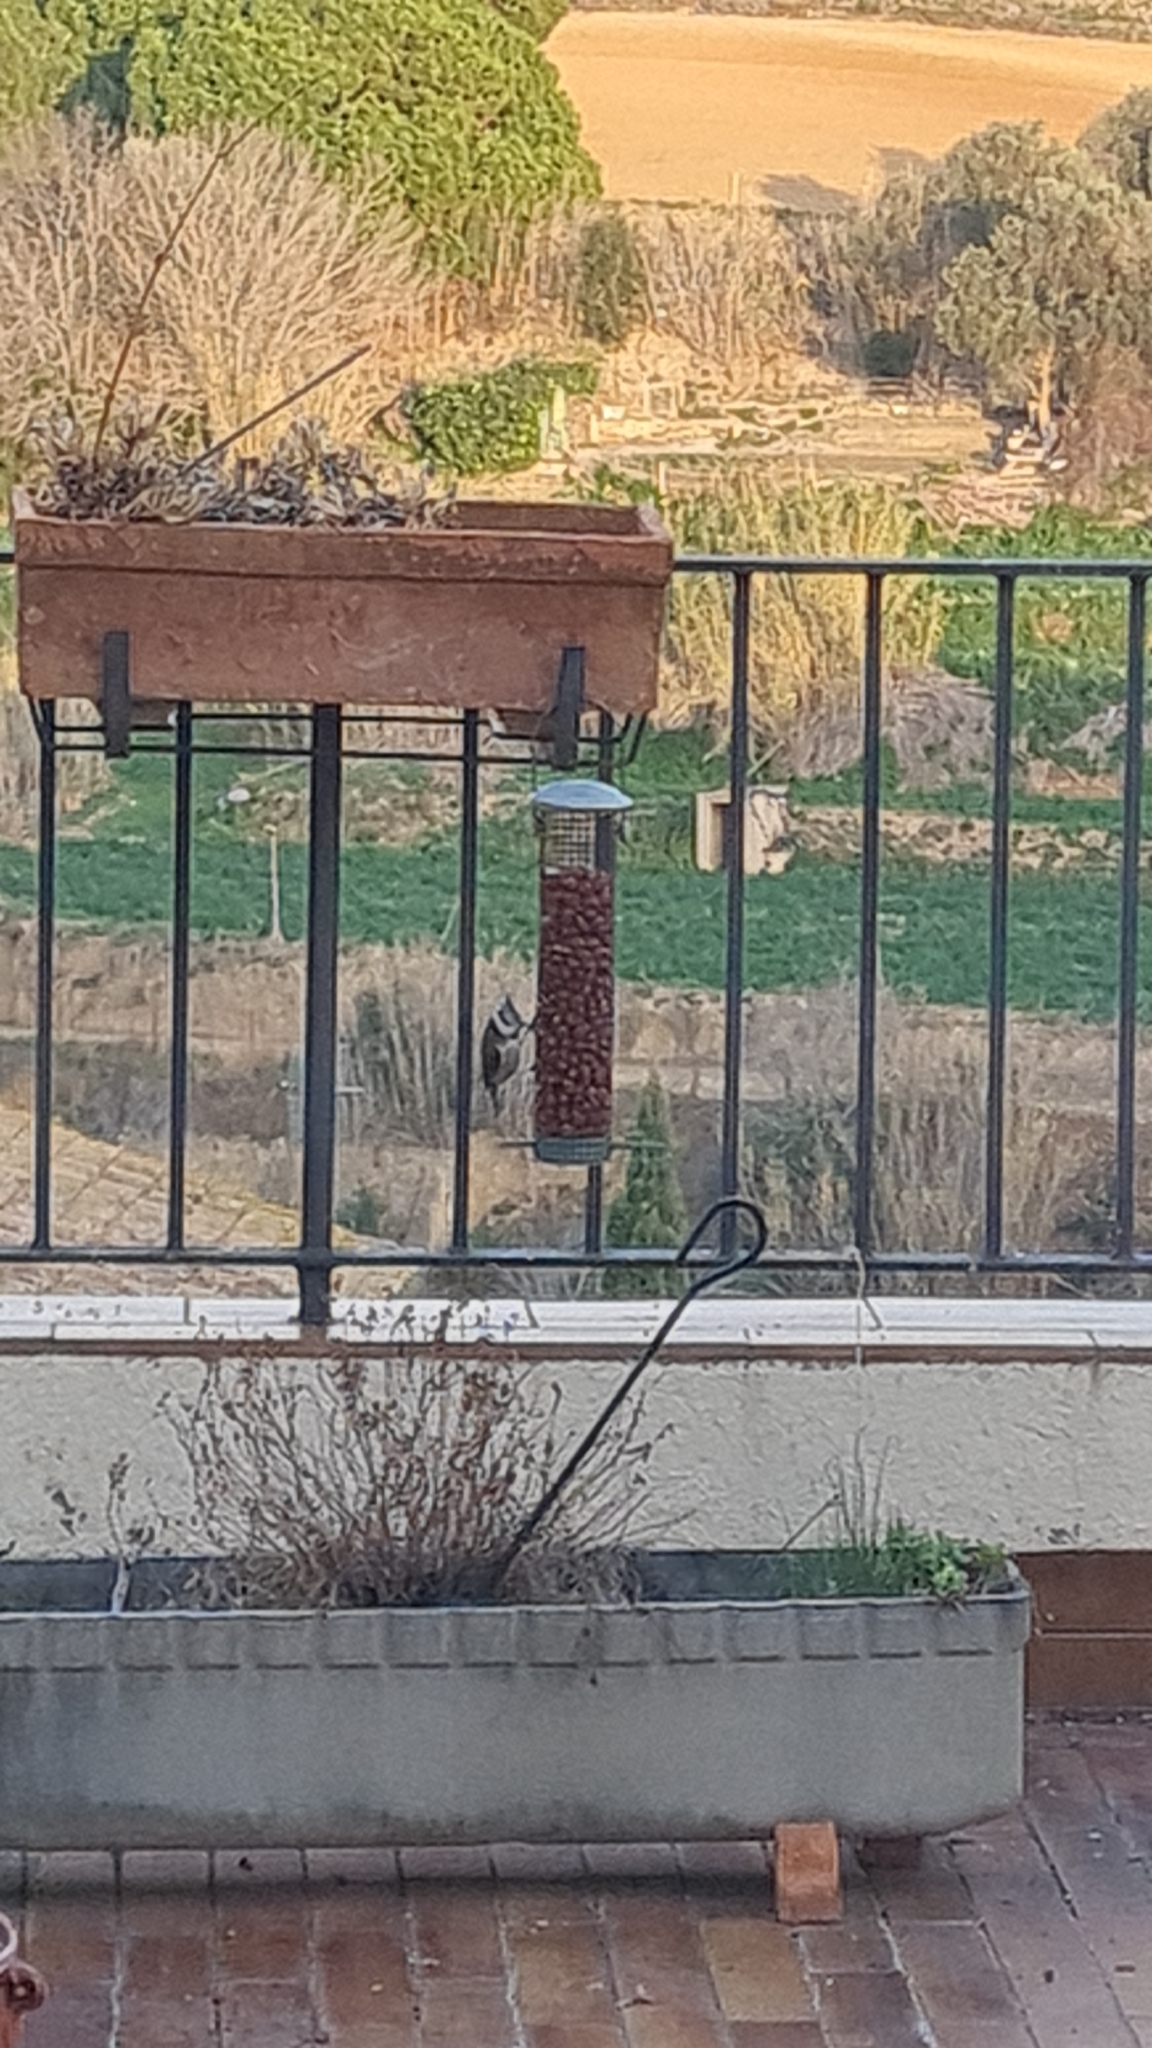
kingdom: Animalia
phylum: Chordata
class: Aves
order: Passeriformes
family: Paridae
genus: Lophophanes
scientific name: Lophophanes cristatus
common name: European crested tit
